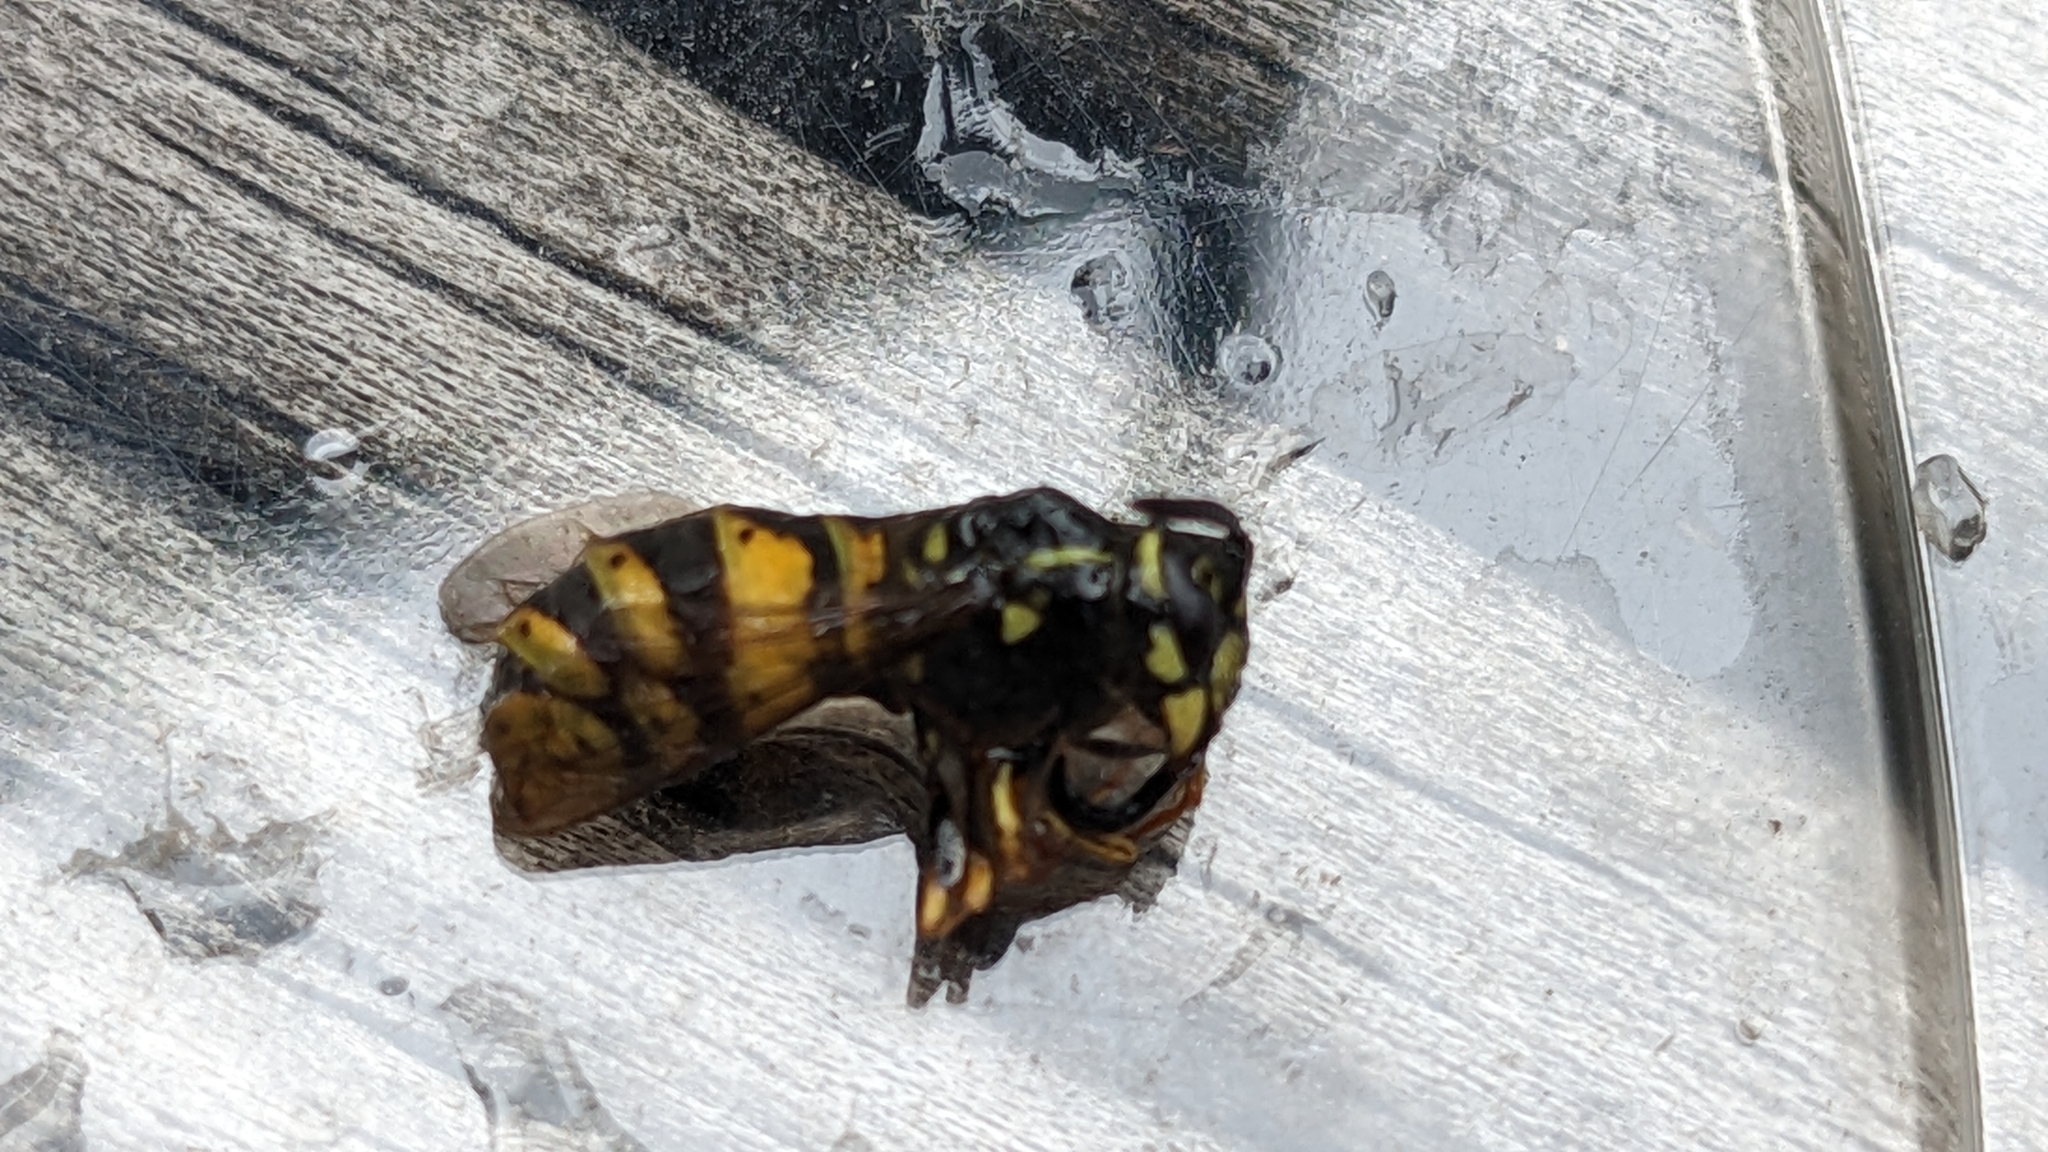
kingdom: Animalia
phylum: Arthropoda
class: Insecta
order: Hymenoptera
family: Vespidae
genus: Vespula
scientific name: Vespula vulgaris
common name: Common wasp
